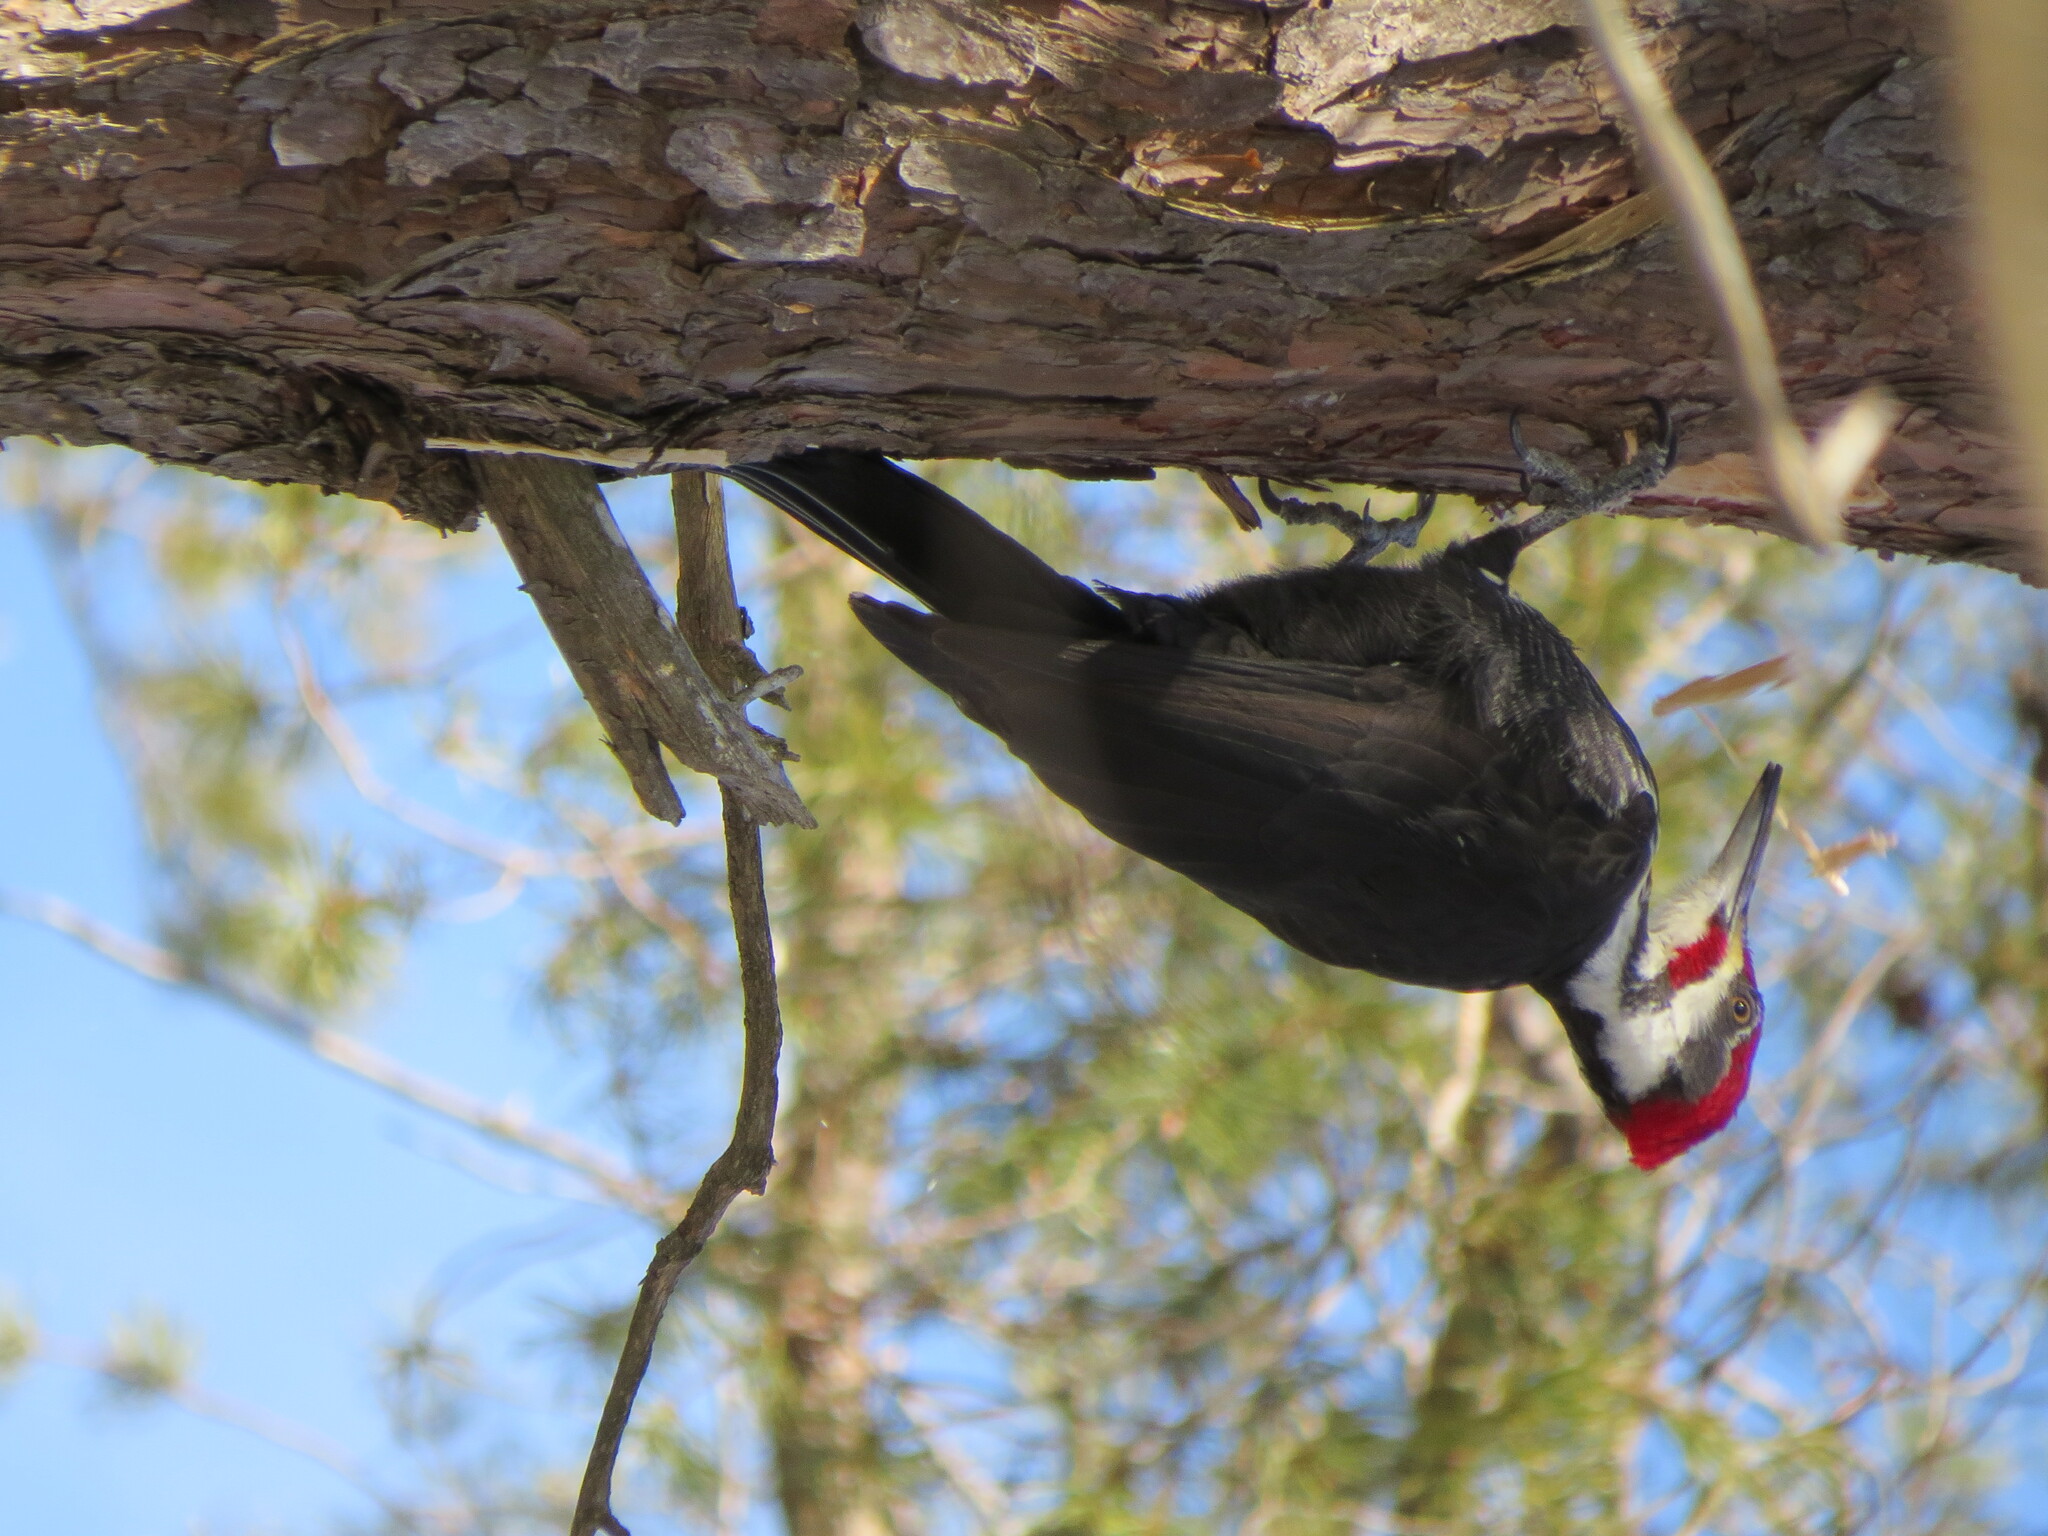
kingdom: Animalia
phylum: Chordata
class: Aves
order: Piciformes
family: Picidae
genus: Dryocopus
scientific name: Dryocopus pileatus
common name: Pileated woodpecker
